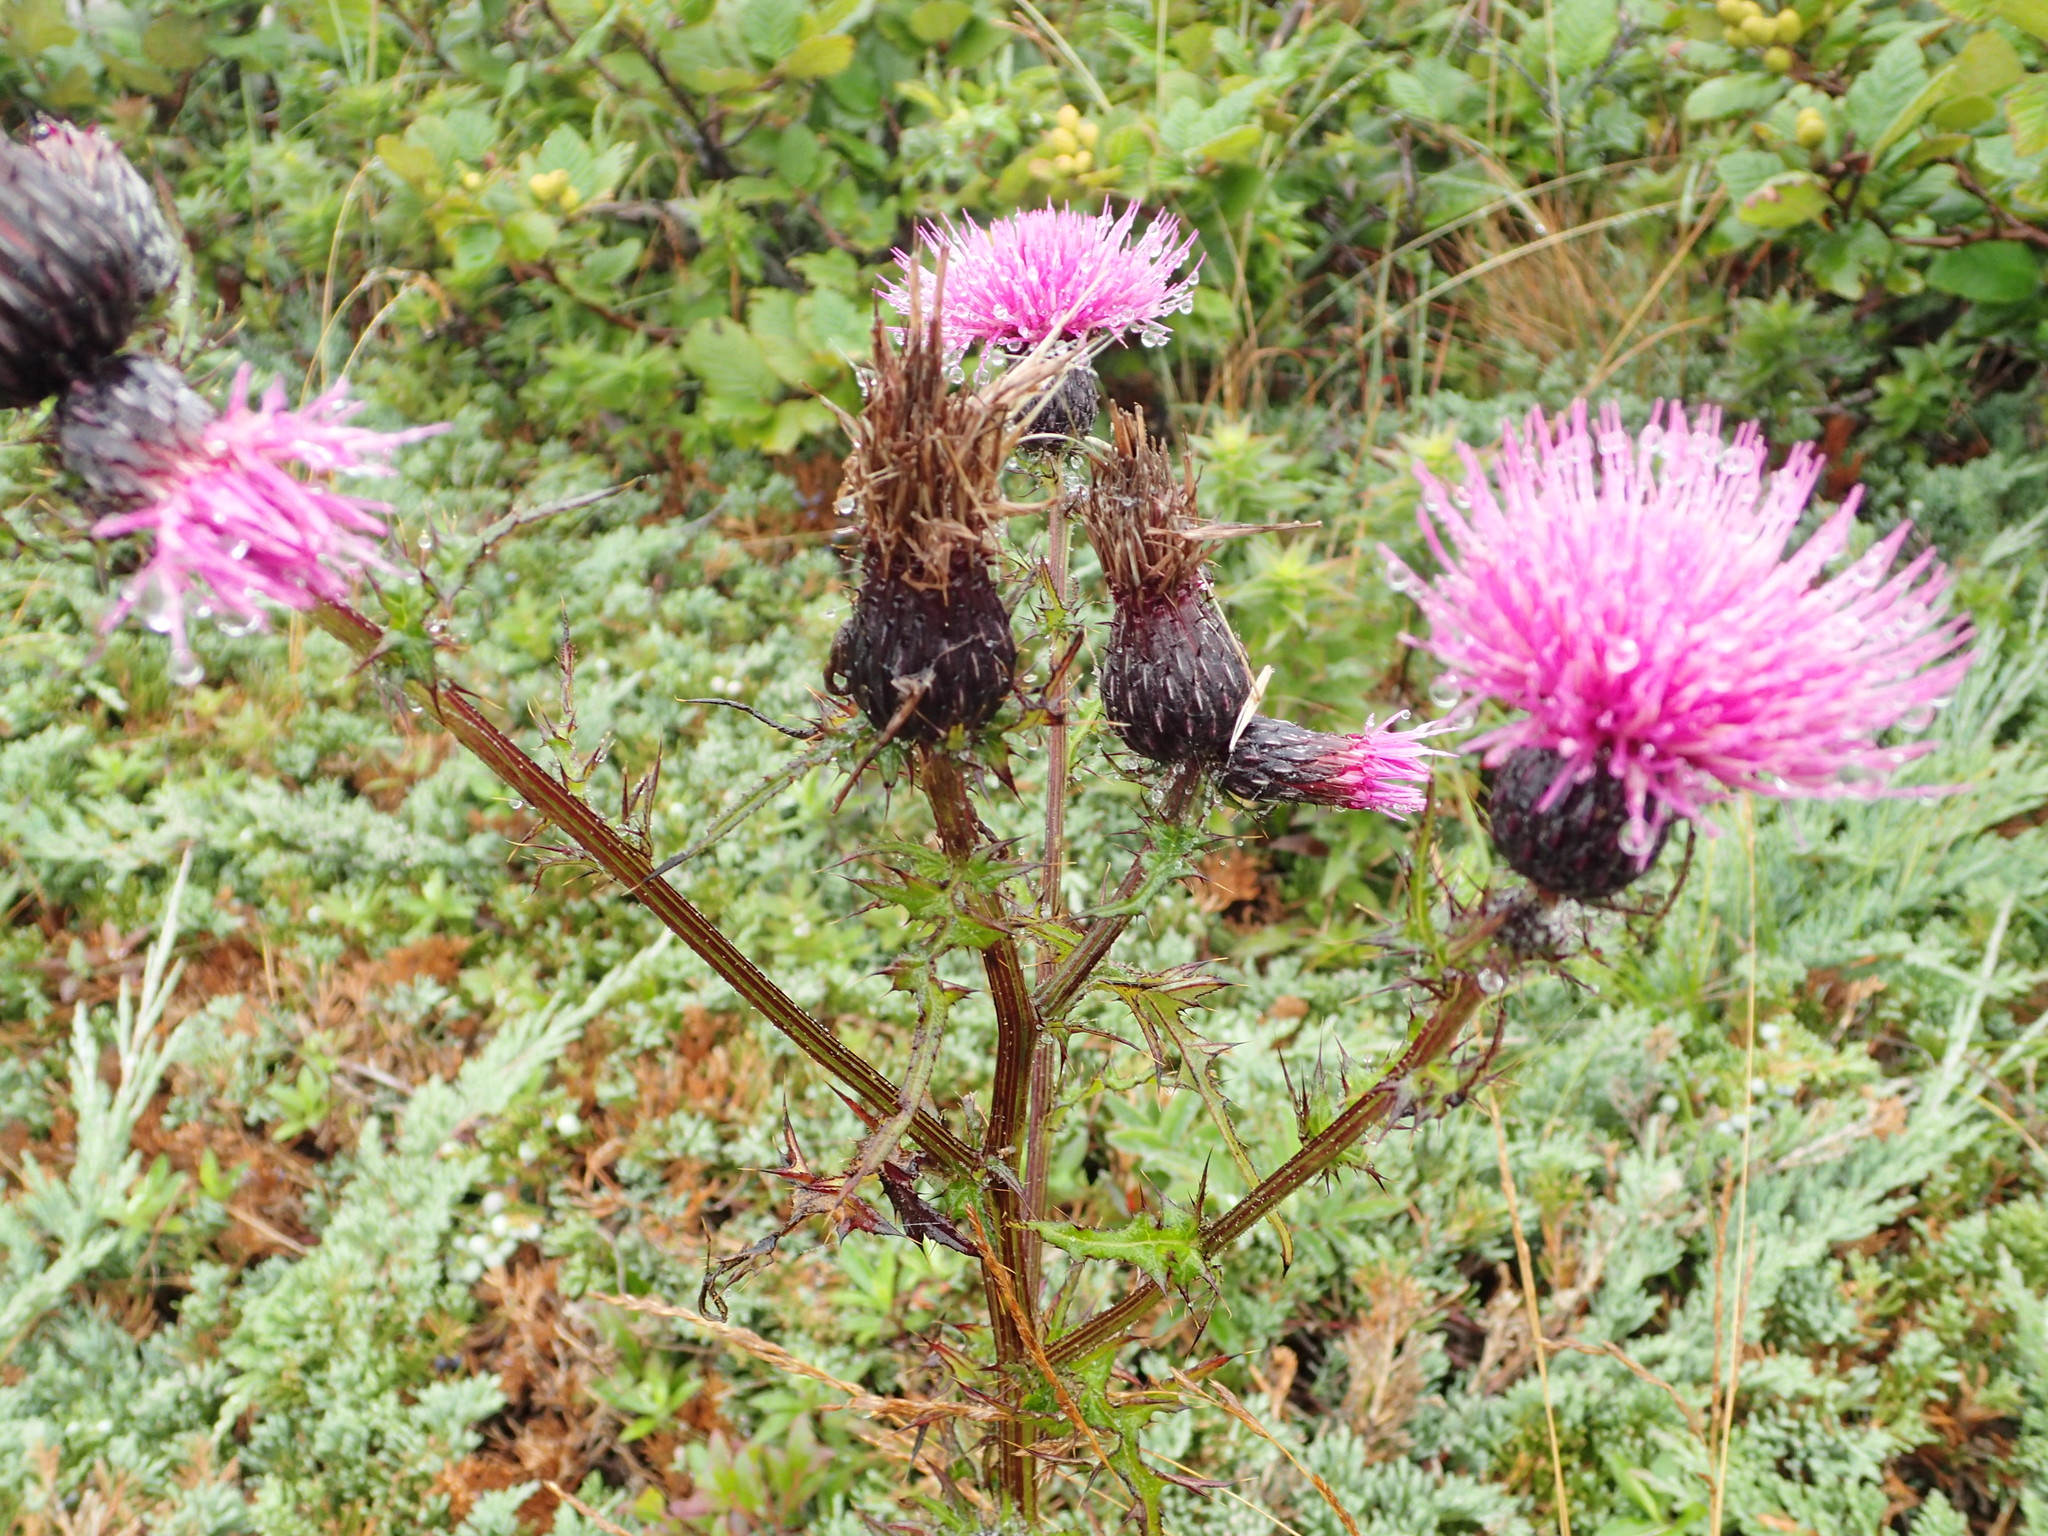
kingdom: Plantae
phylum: Tracheophyta
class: Magnoliopsida
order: Asterales
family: Asteraceae
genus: Cirsium
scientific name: Cirsium muticum
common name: Dunce-nettle
